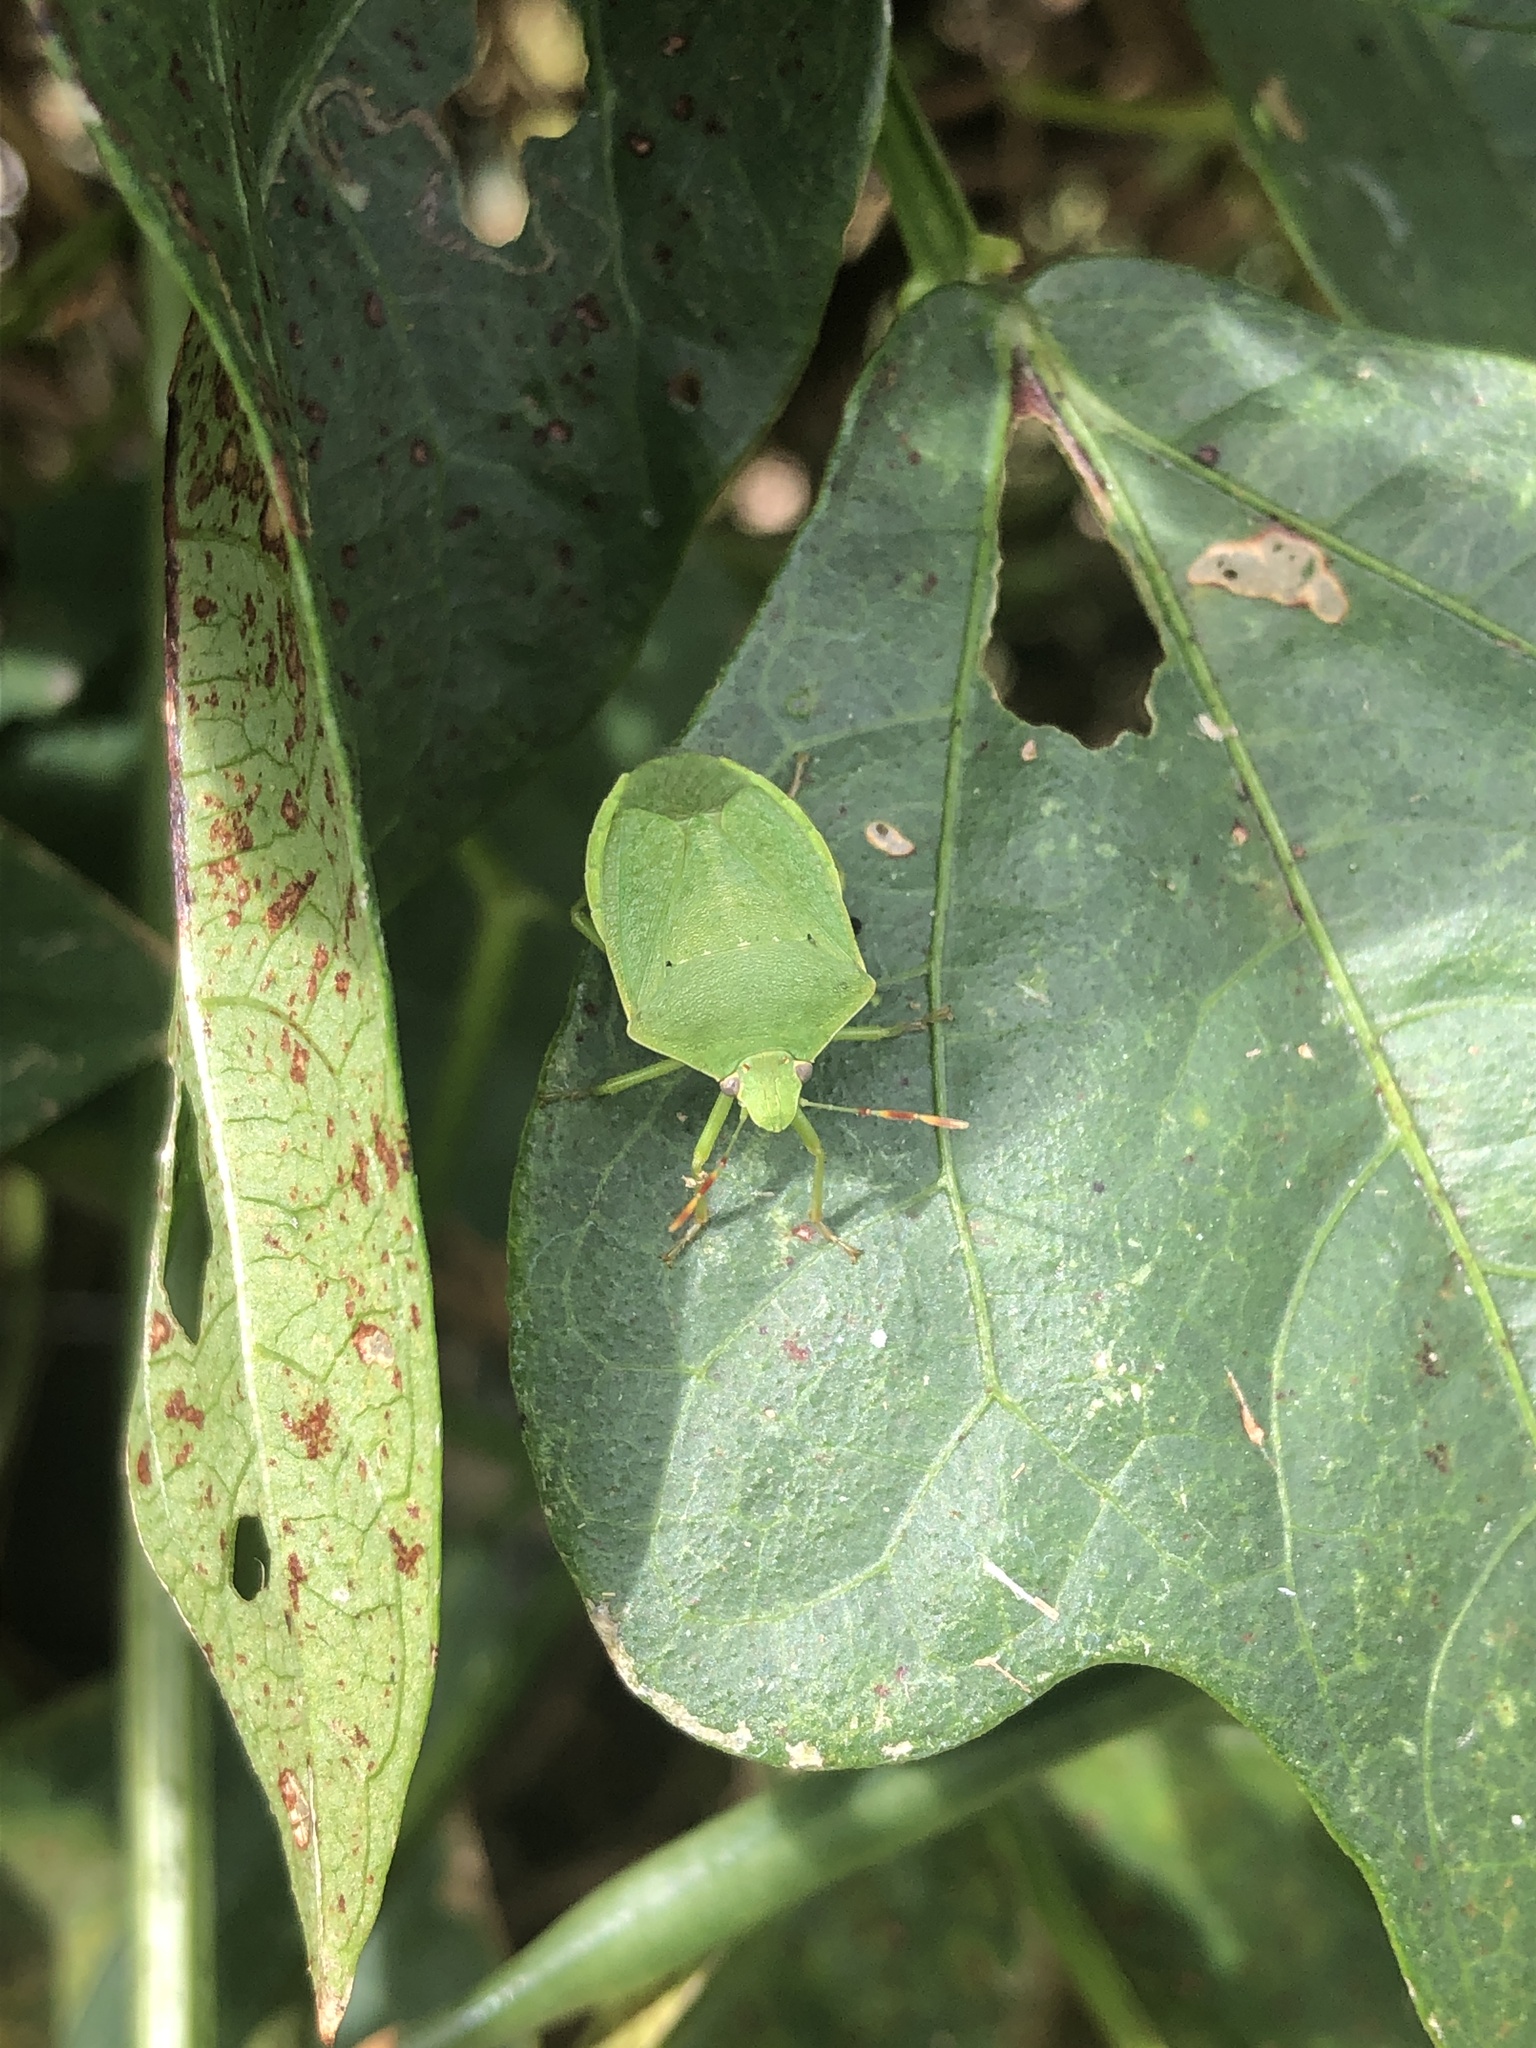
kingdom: Animalia
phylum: Arthropoda
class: Insecta
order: Hemiptera
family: Pentatomidae
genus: Nezara
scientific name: Nezara viridula
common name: Southern green stink bug
